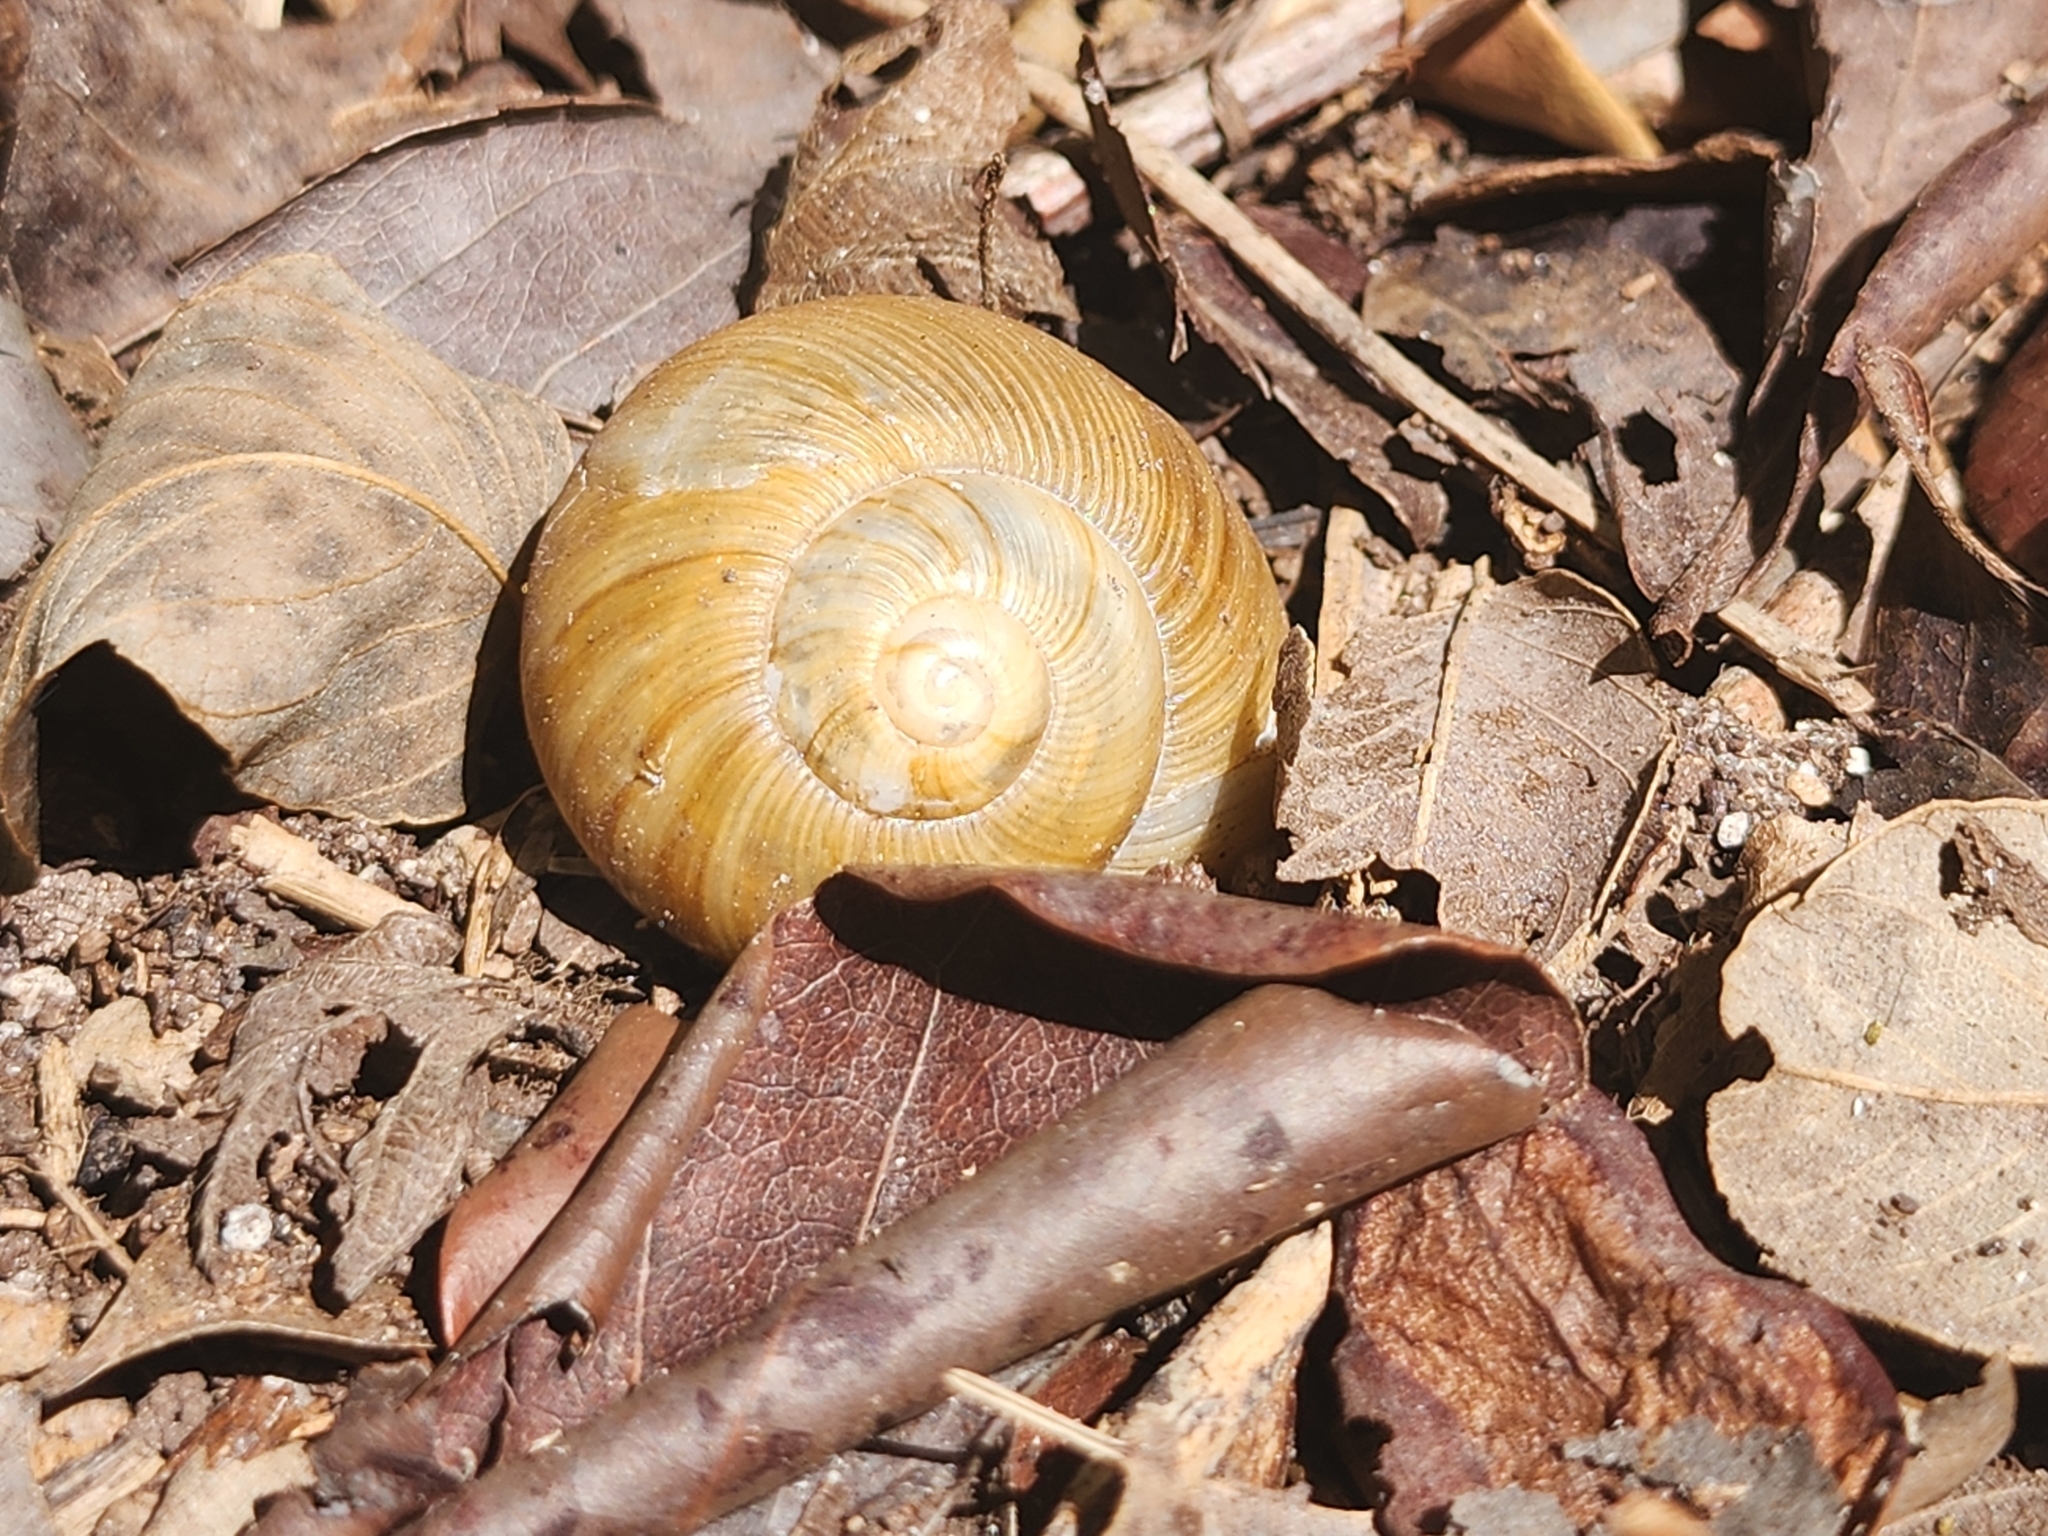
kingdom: Animalia
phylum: Mollusca
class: Gastropoda
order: Stylommatophora
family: Zachrysiidae
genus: Zachrysia
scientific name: Zachrysia provisoria
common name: Garden zachrysia
